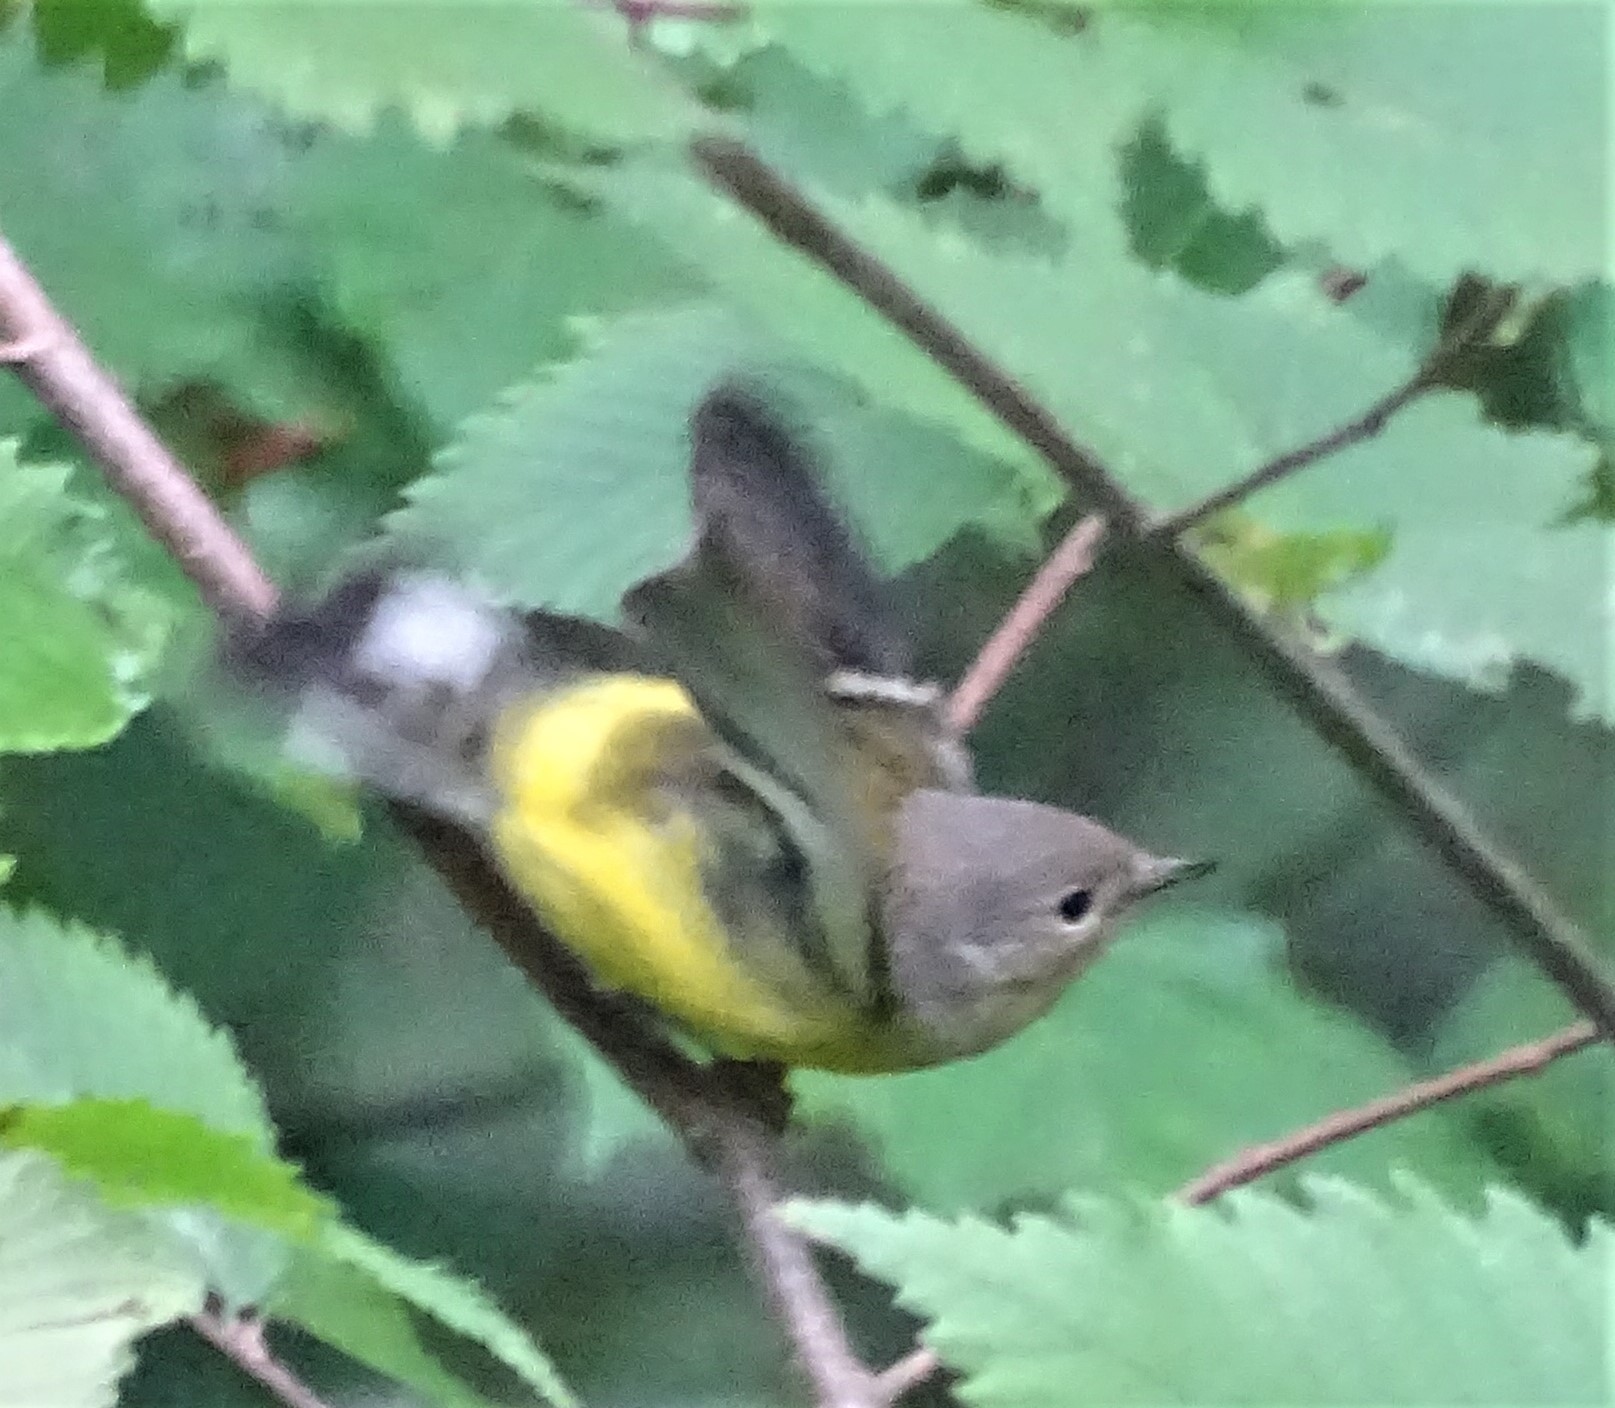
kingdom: Animalia
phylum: Chordata
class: Aves
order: Passeriformes
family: Parulidae
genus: Setophaga
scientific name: Setophaga magnolia
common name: Magnolia warbler
